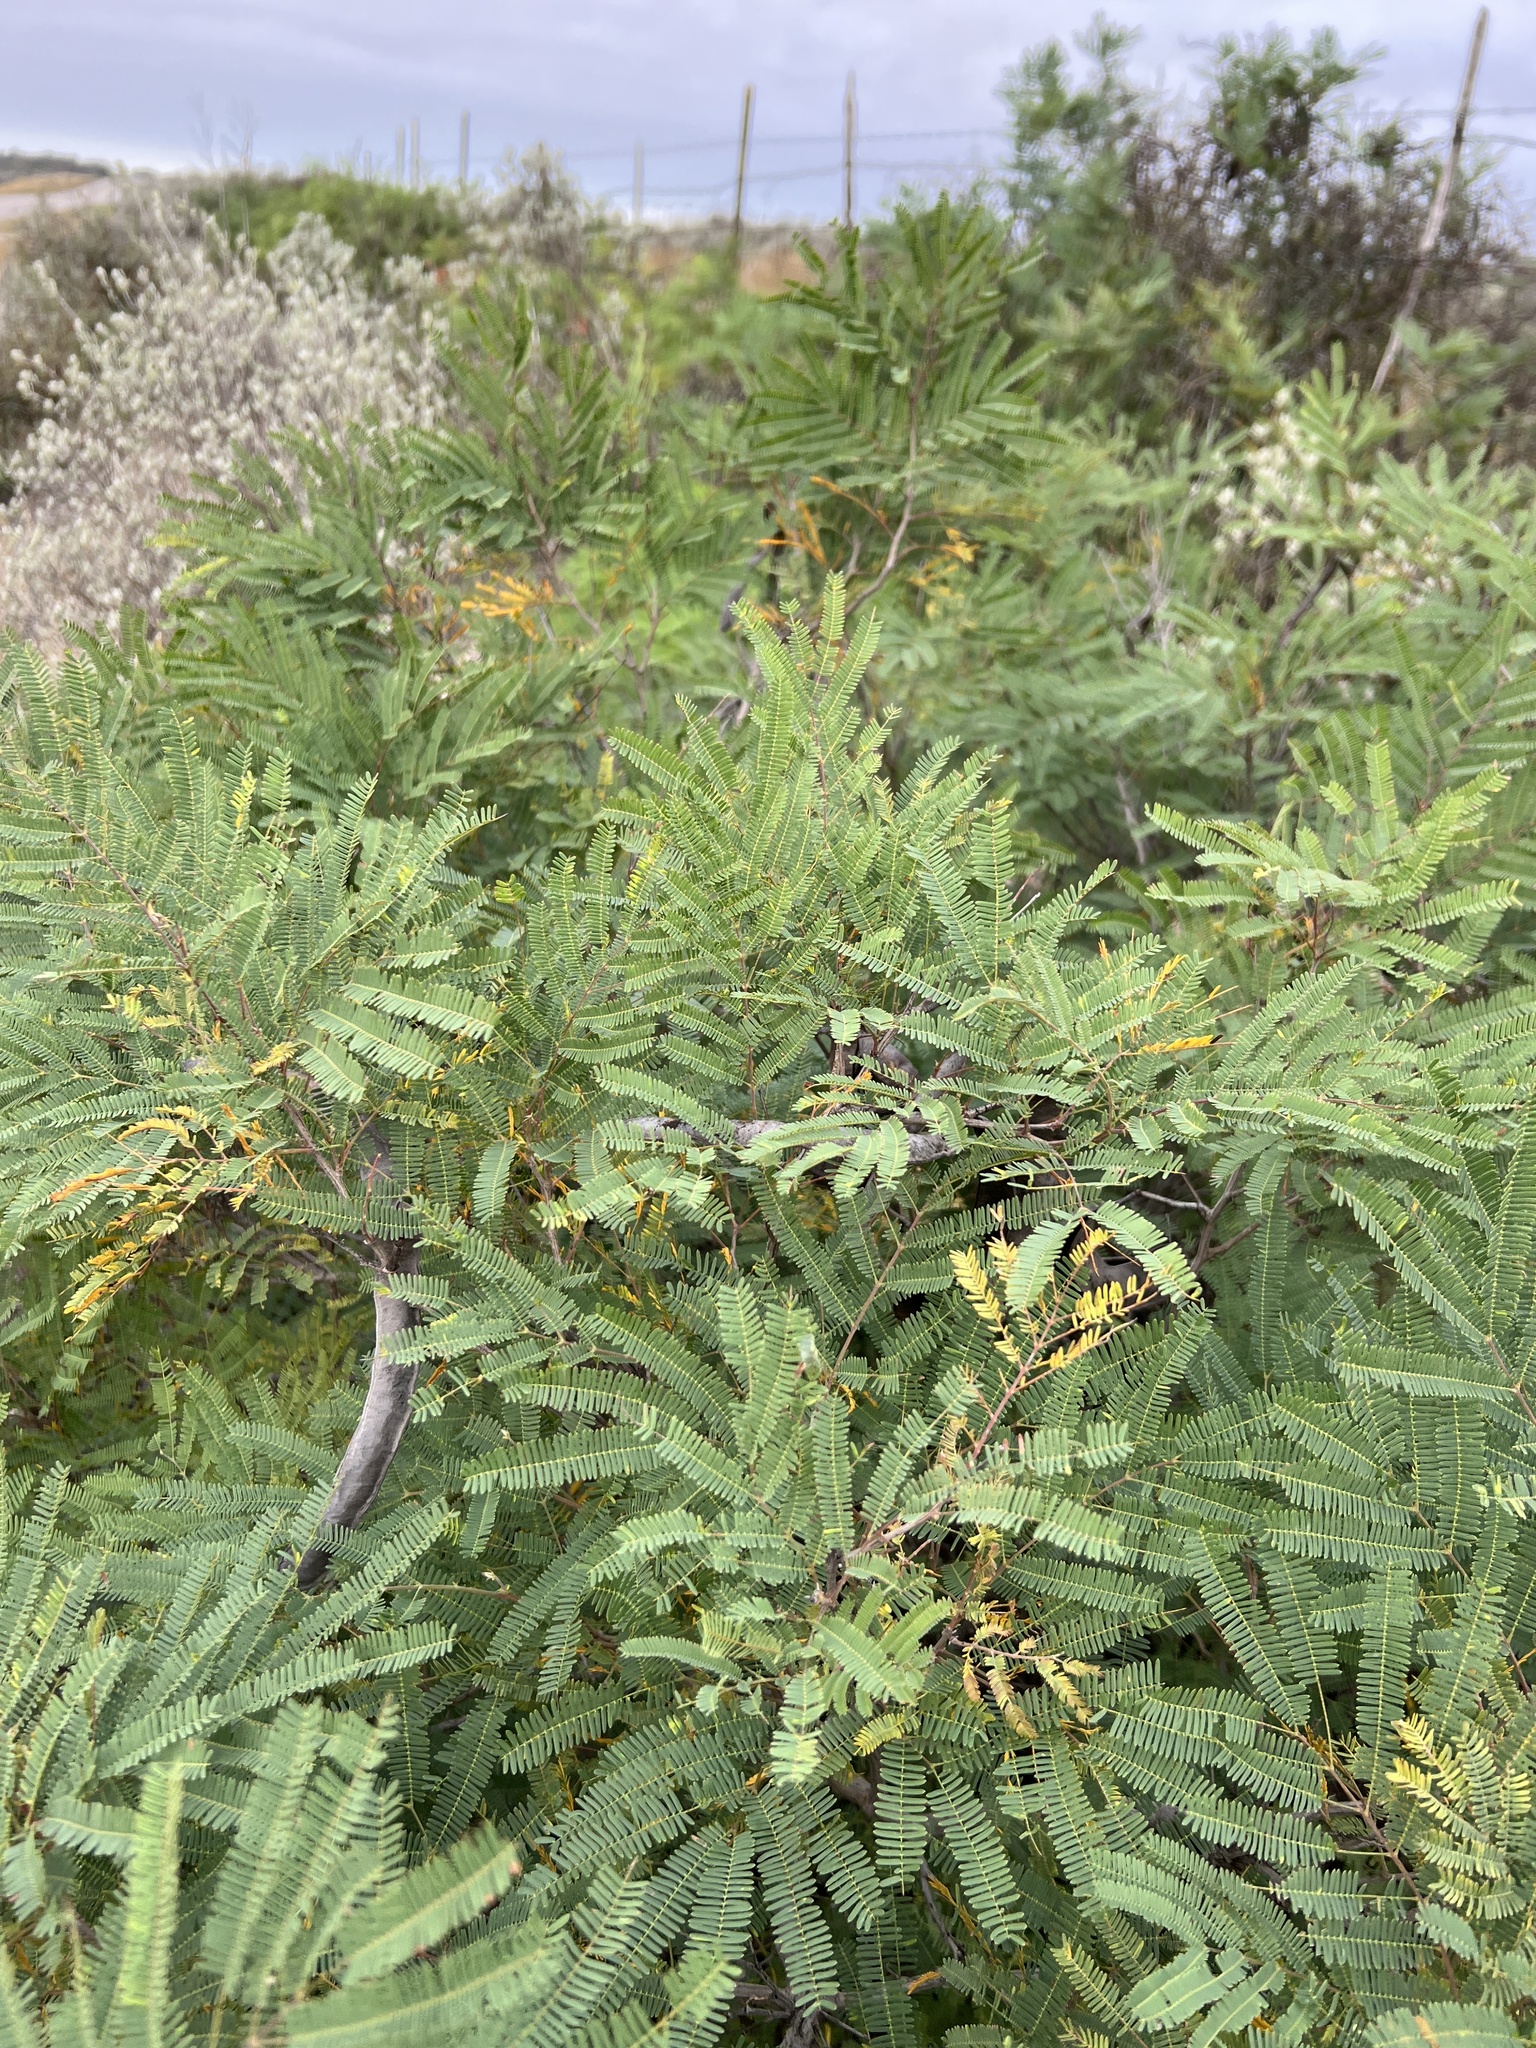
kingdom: Plantae
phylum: Tracheophyta
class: Magnoliopsida
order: Fabales
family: Fabaceae
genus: Senegalia
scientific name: Senegalia berlandieri
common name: Berlandier acacia
